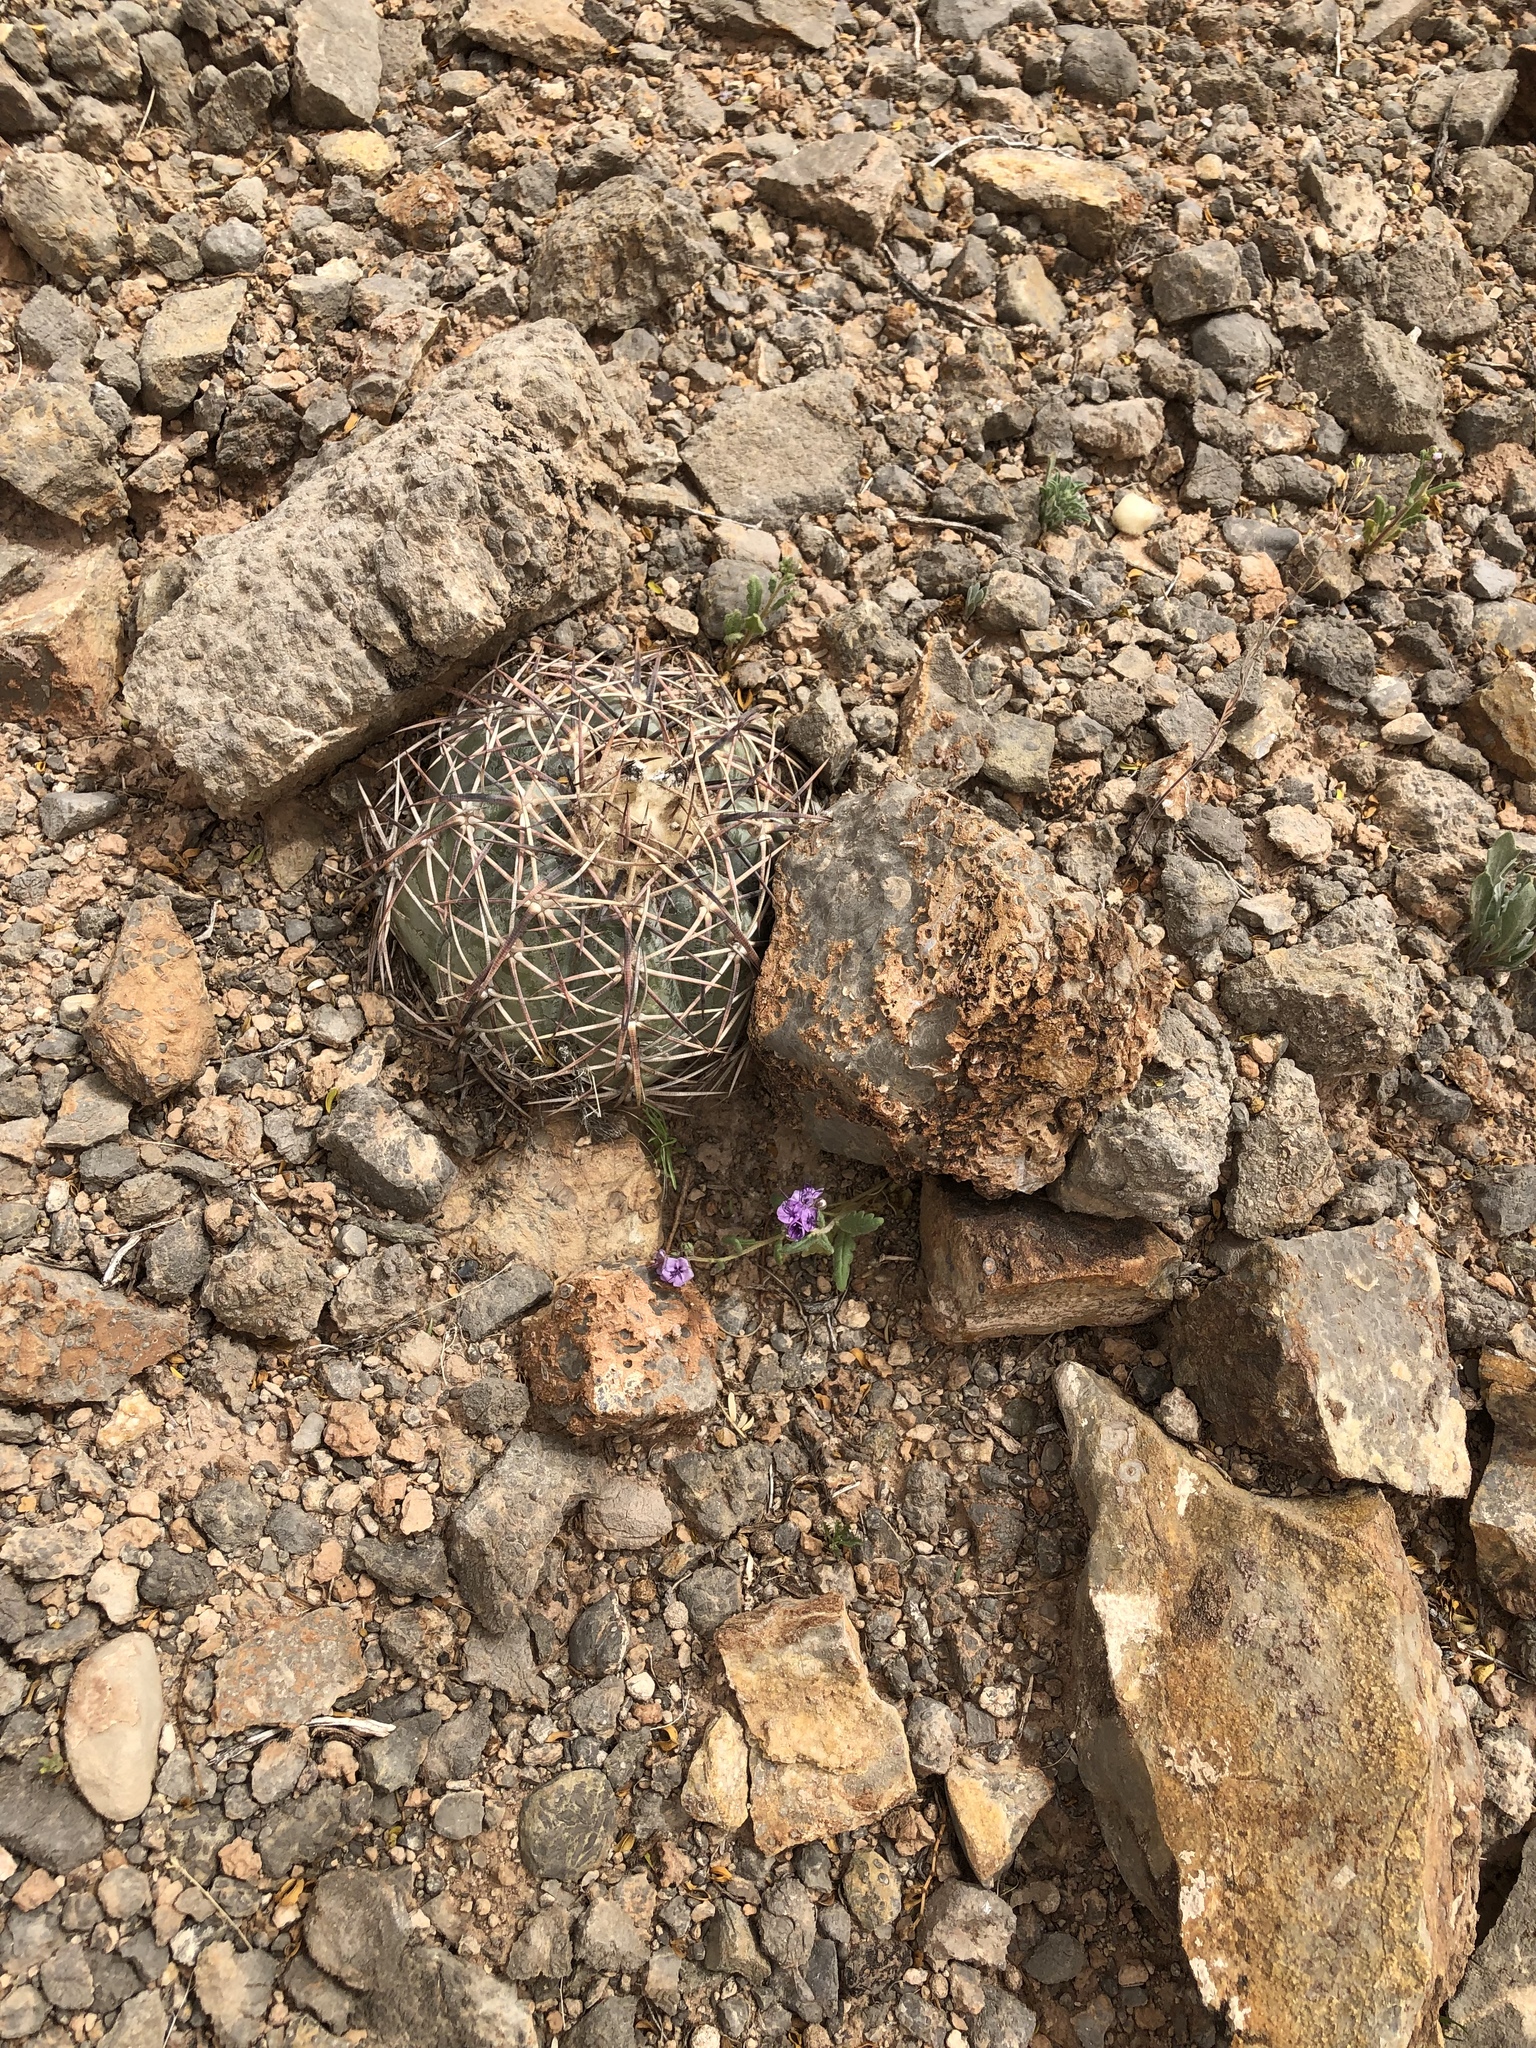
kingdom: Plantae
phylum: Tracheophyta
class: Magnoliopsida
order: Caryophyllales
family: Cactaceae
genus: Echinocactus
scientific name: Echinocactus horizonthalonius
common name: Devilshead
